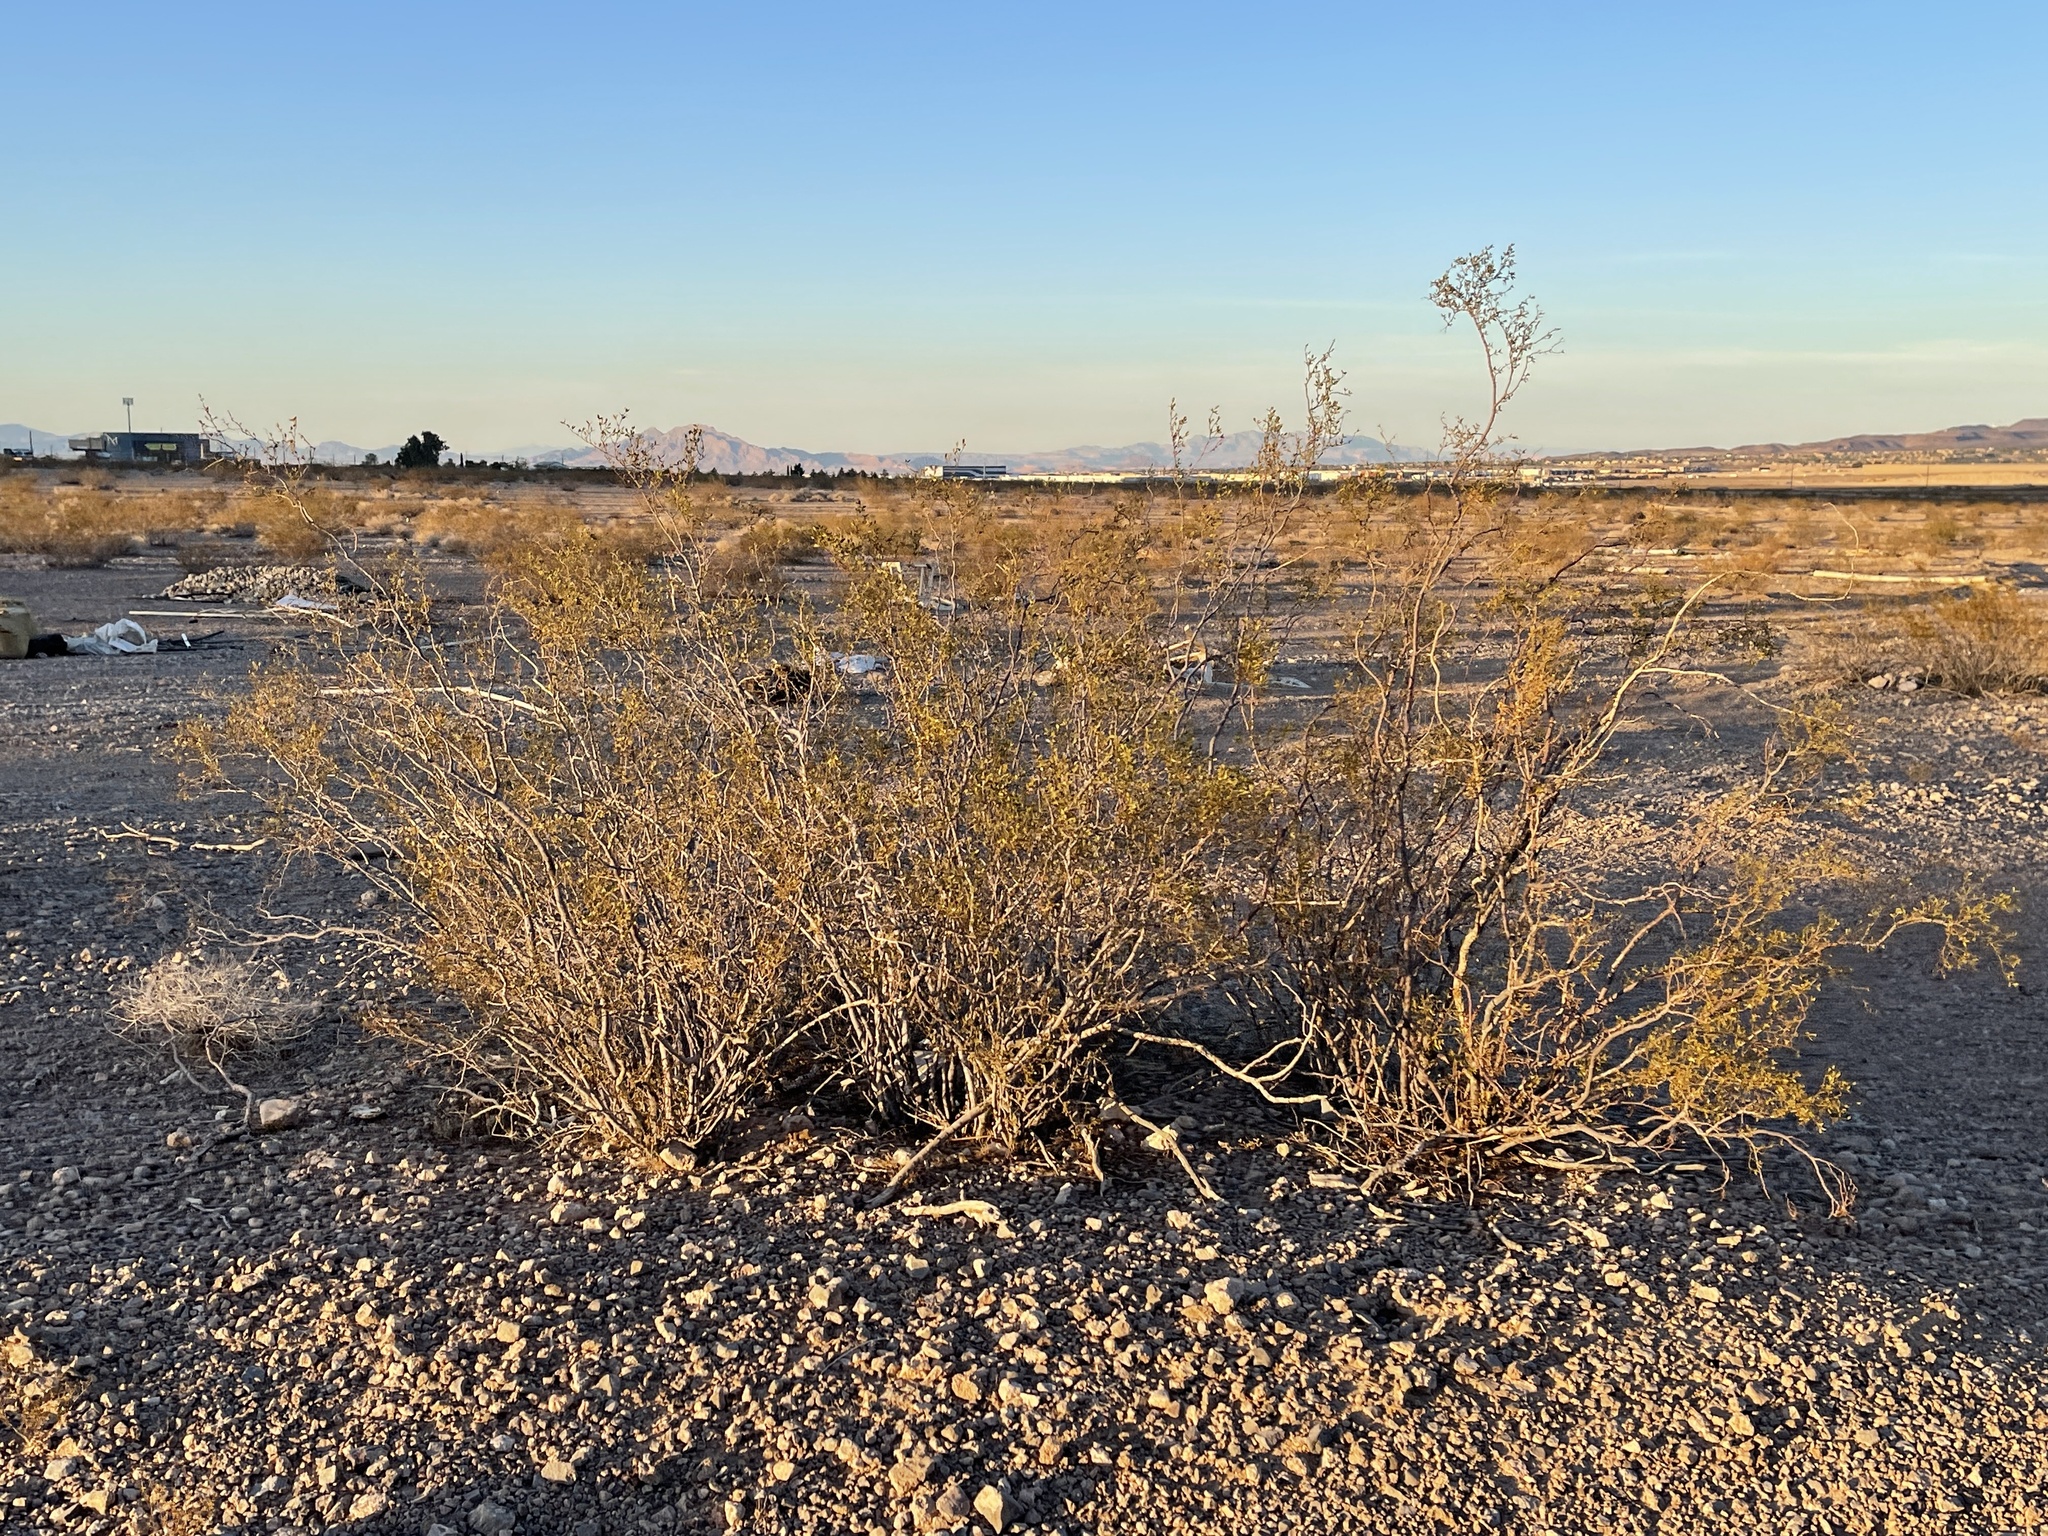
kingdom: Plantae
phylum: Tracheophyta
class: Magnoliopsida
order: Zygophyllales
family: Zygophyllaceae
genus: Larrea
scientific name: Larrea tridentata
